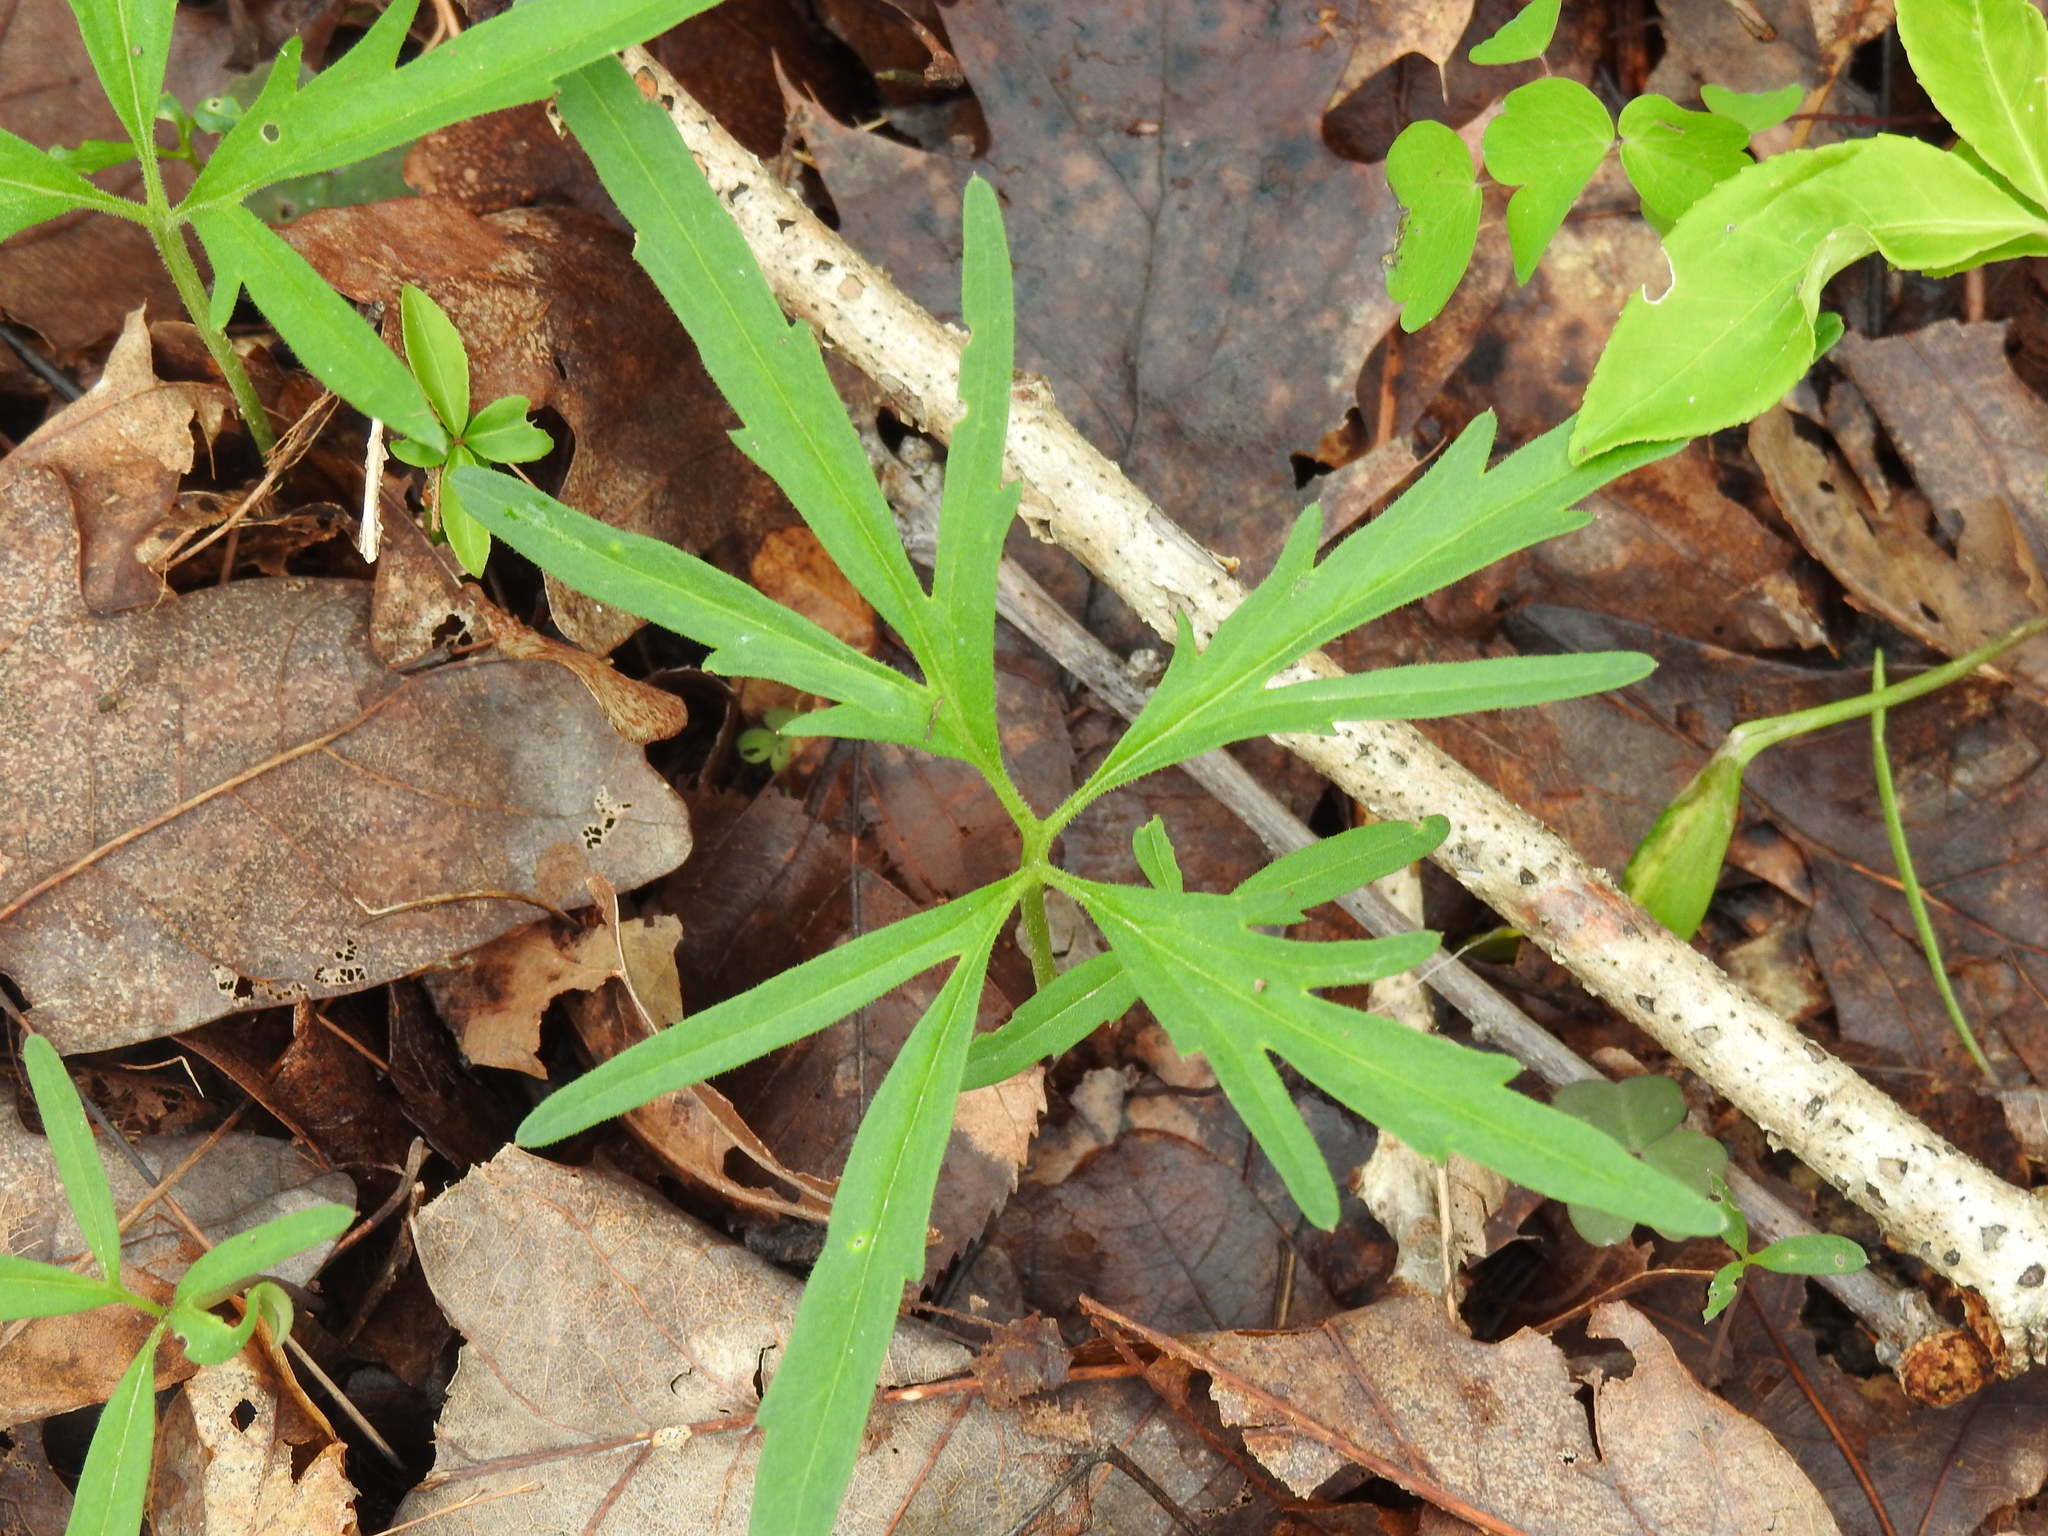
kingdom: Plantae
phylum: Tracheophyta
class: Magnoliopsida
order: Brassicales
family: Brassicaceae
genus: Cardamine
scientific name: Cardamine concatenata
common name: Cut-leaf toothcup
